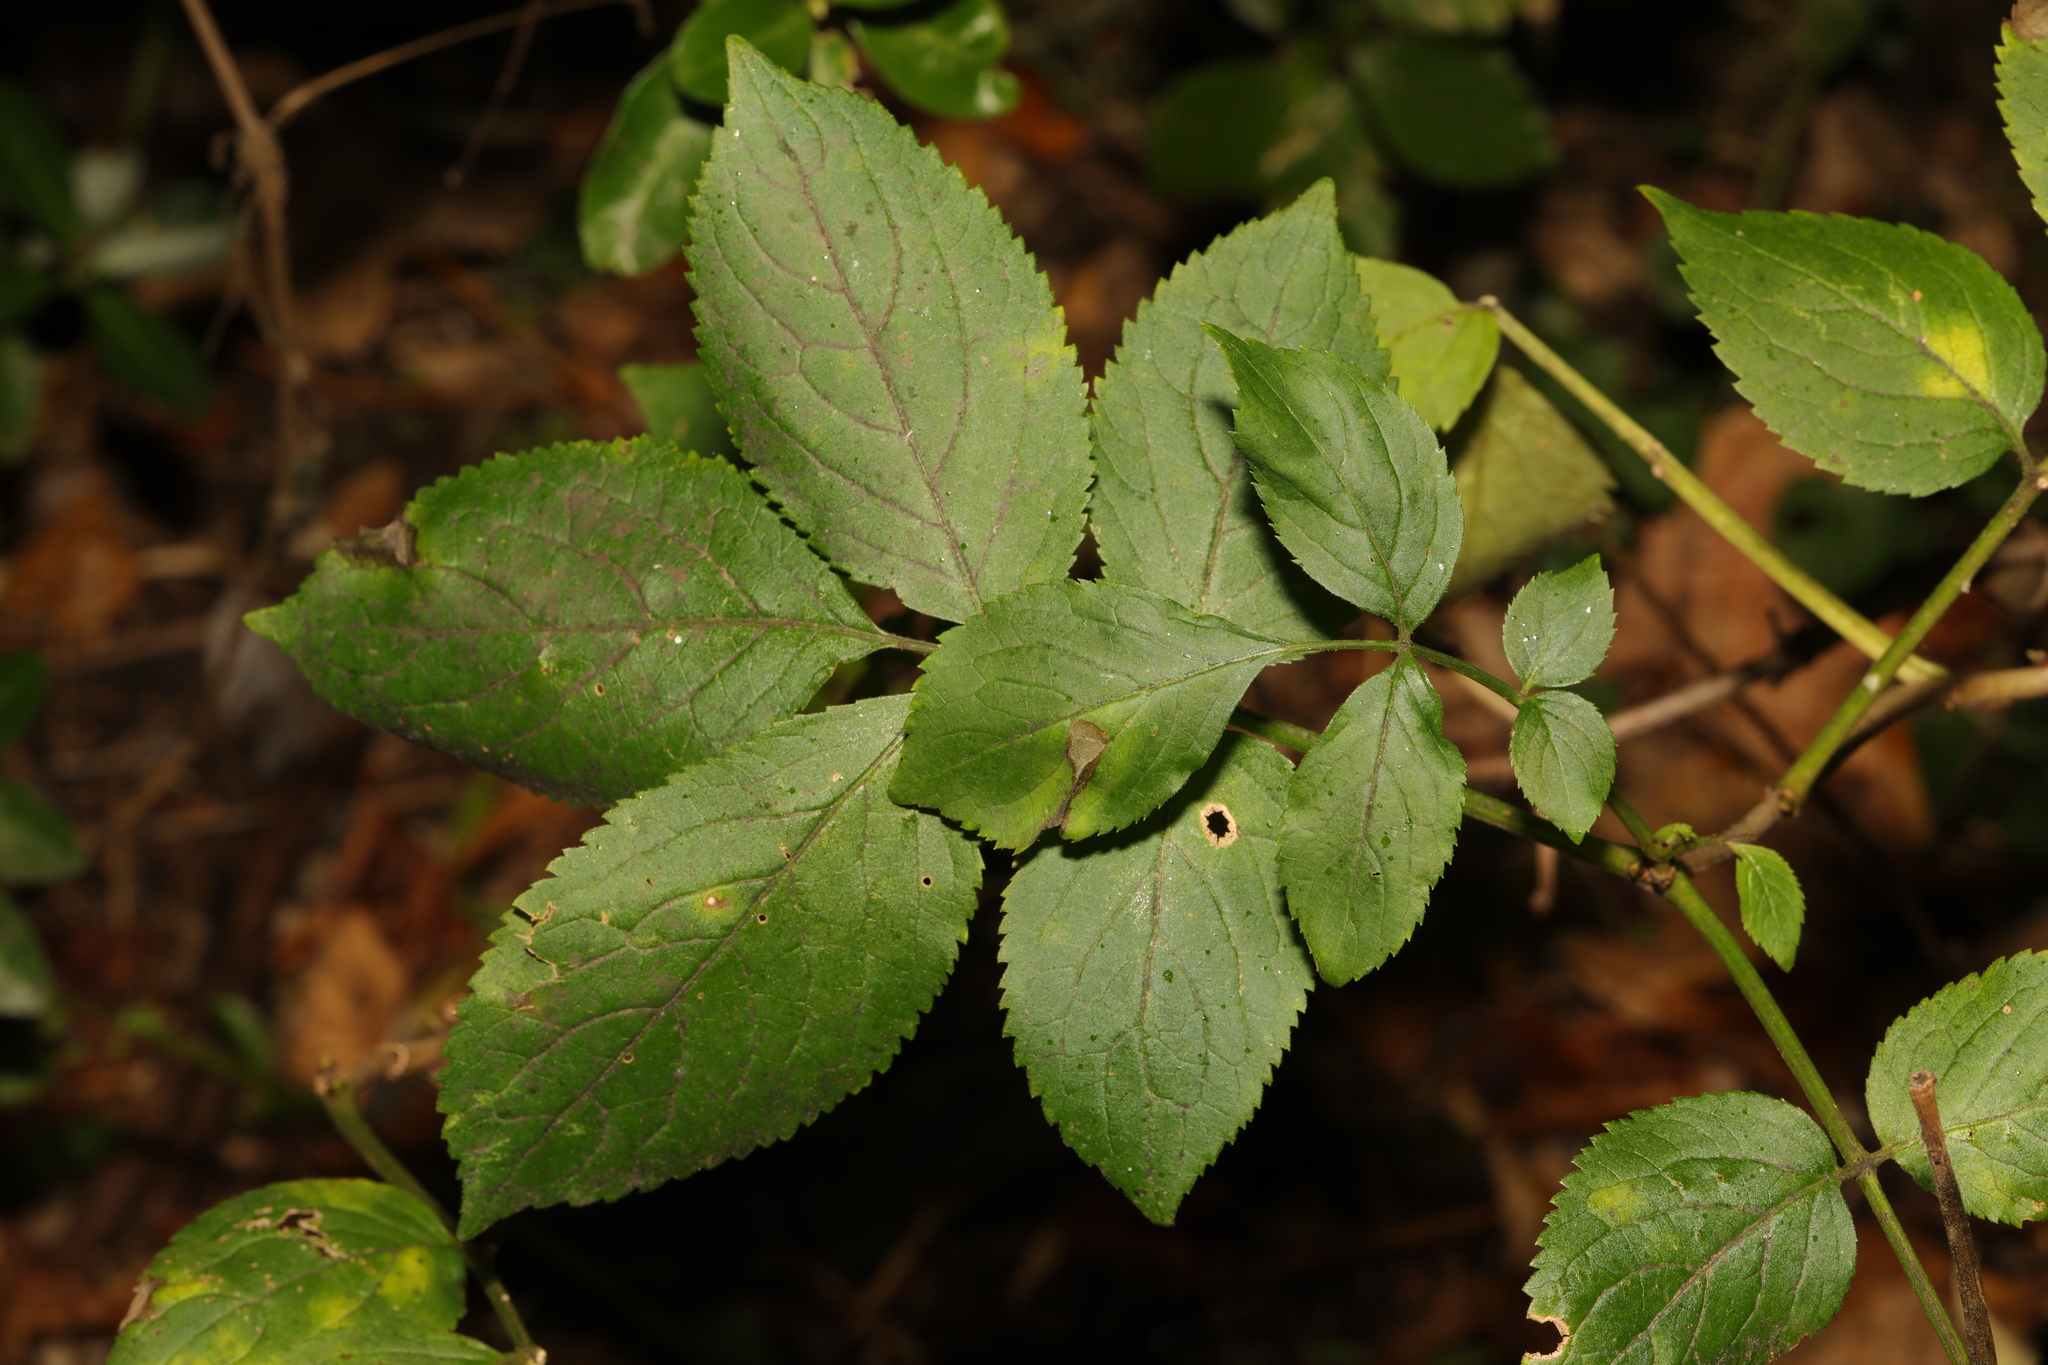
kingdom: Plantae
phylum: Tracheophyta
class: Magnoliopsida
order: Dipsacales
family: Viburnaceae
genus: Sambucus
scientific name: Sambucus nigra
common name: Elder
